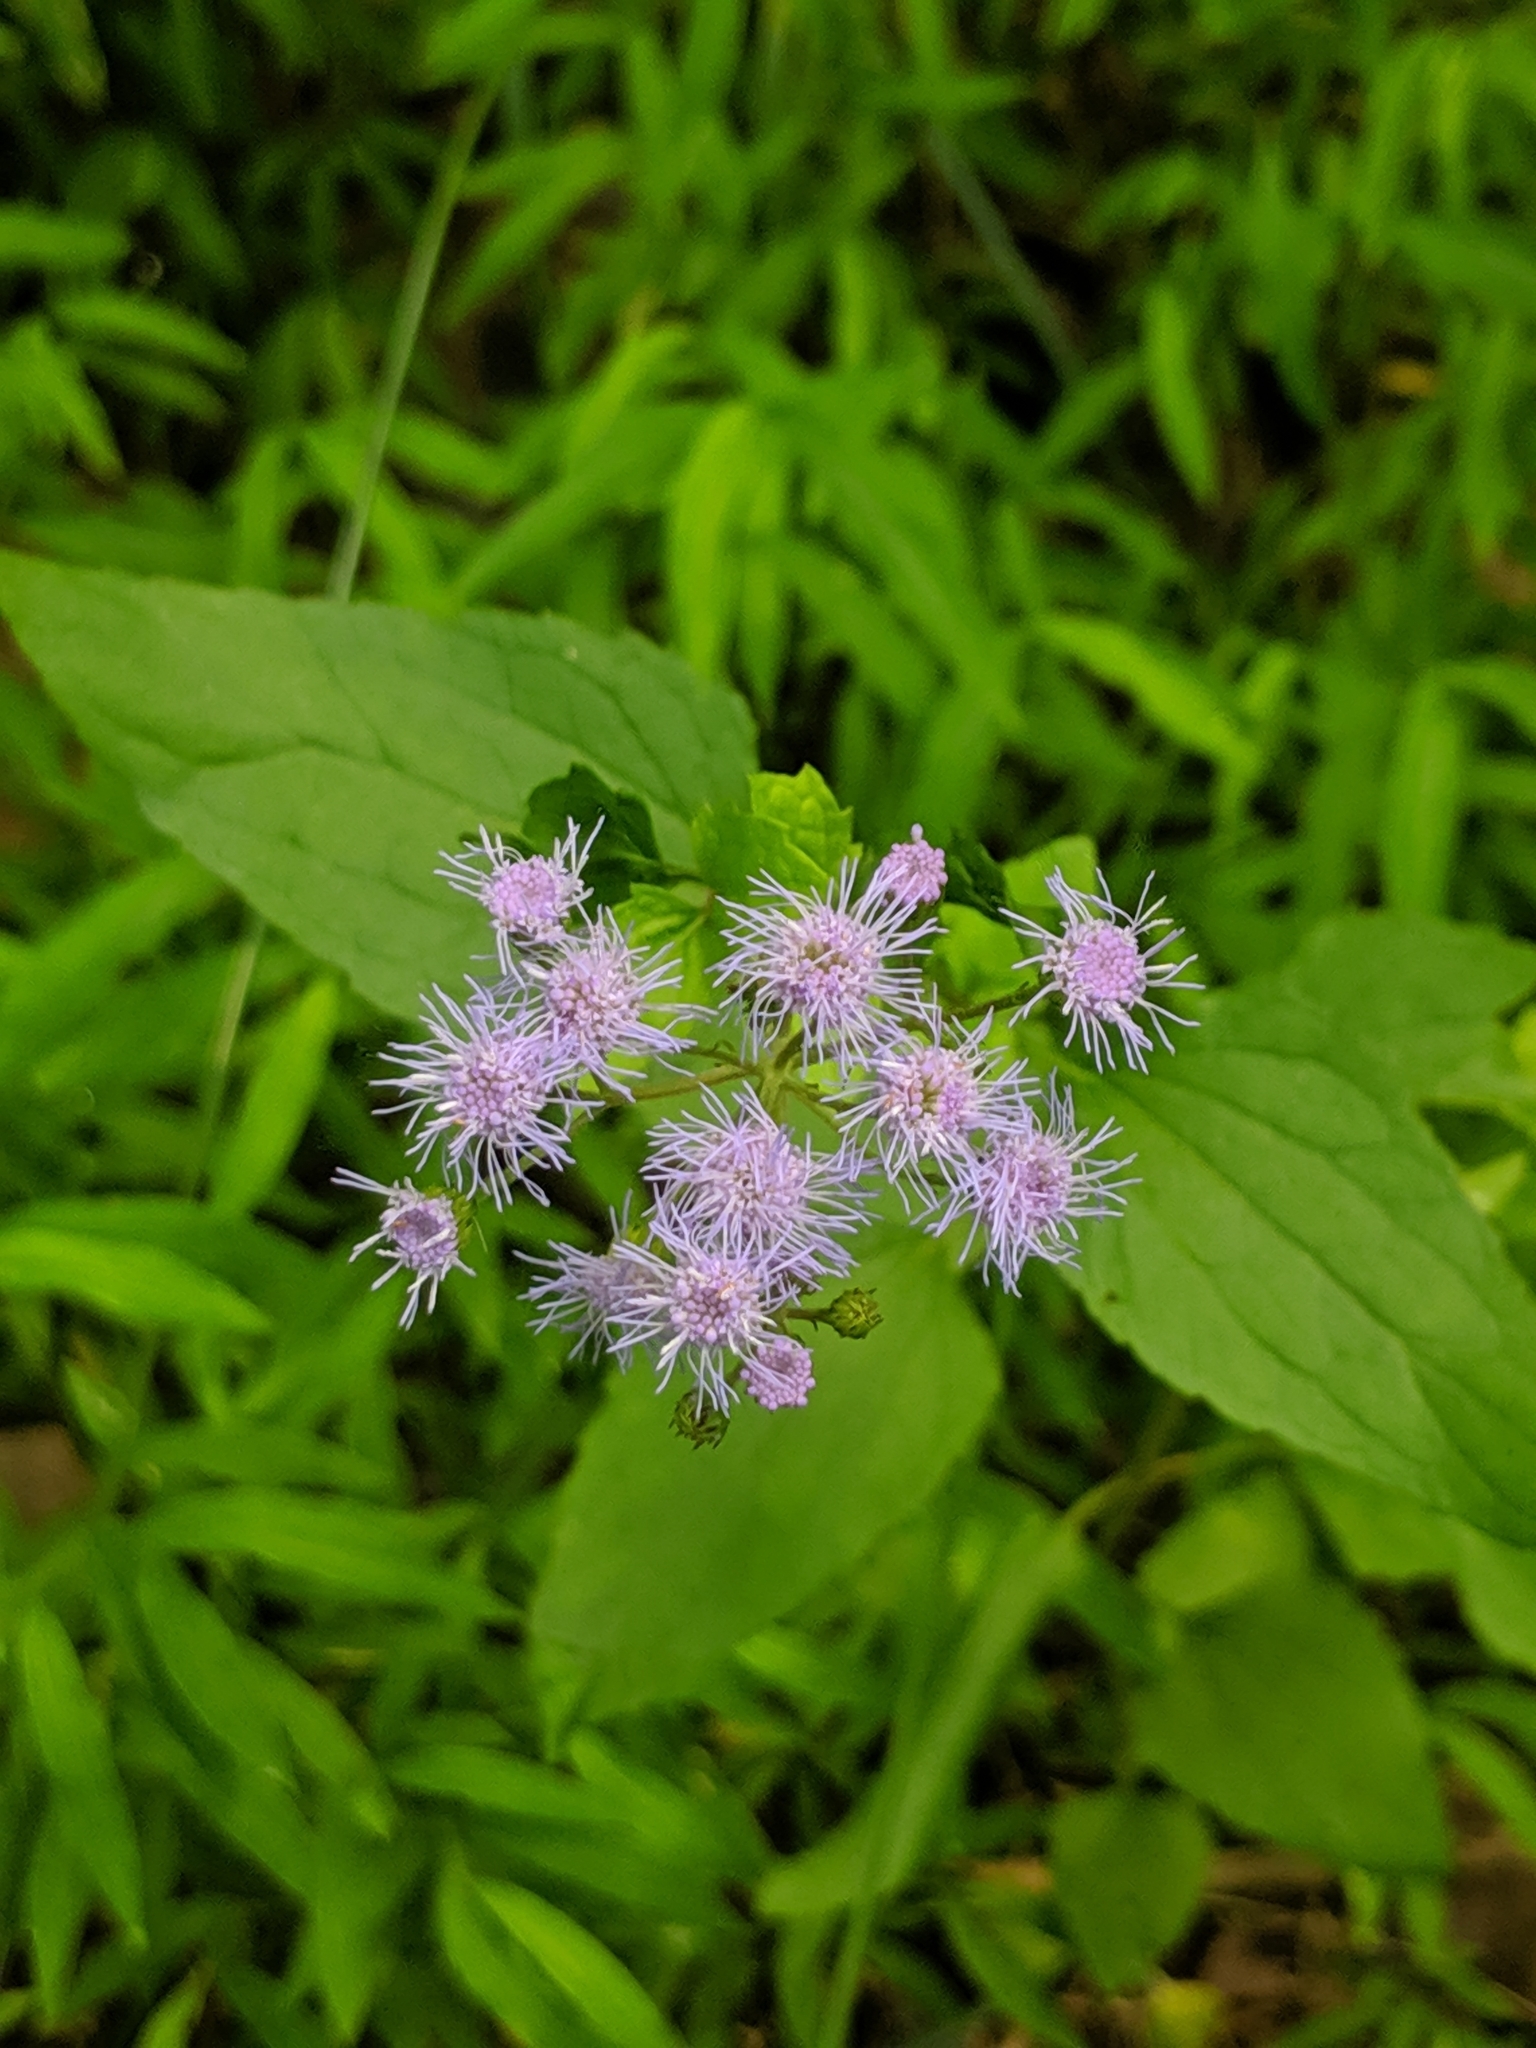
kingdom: Plantae
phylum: Tracheophyta
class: Magnoliopsida
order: Asterales
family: Asteraceae
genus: Conoclinium
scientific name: Conoclinium coelestinum
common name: Blue mistflower
